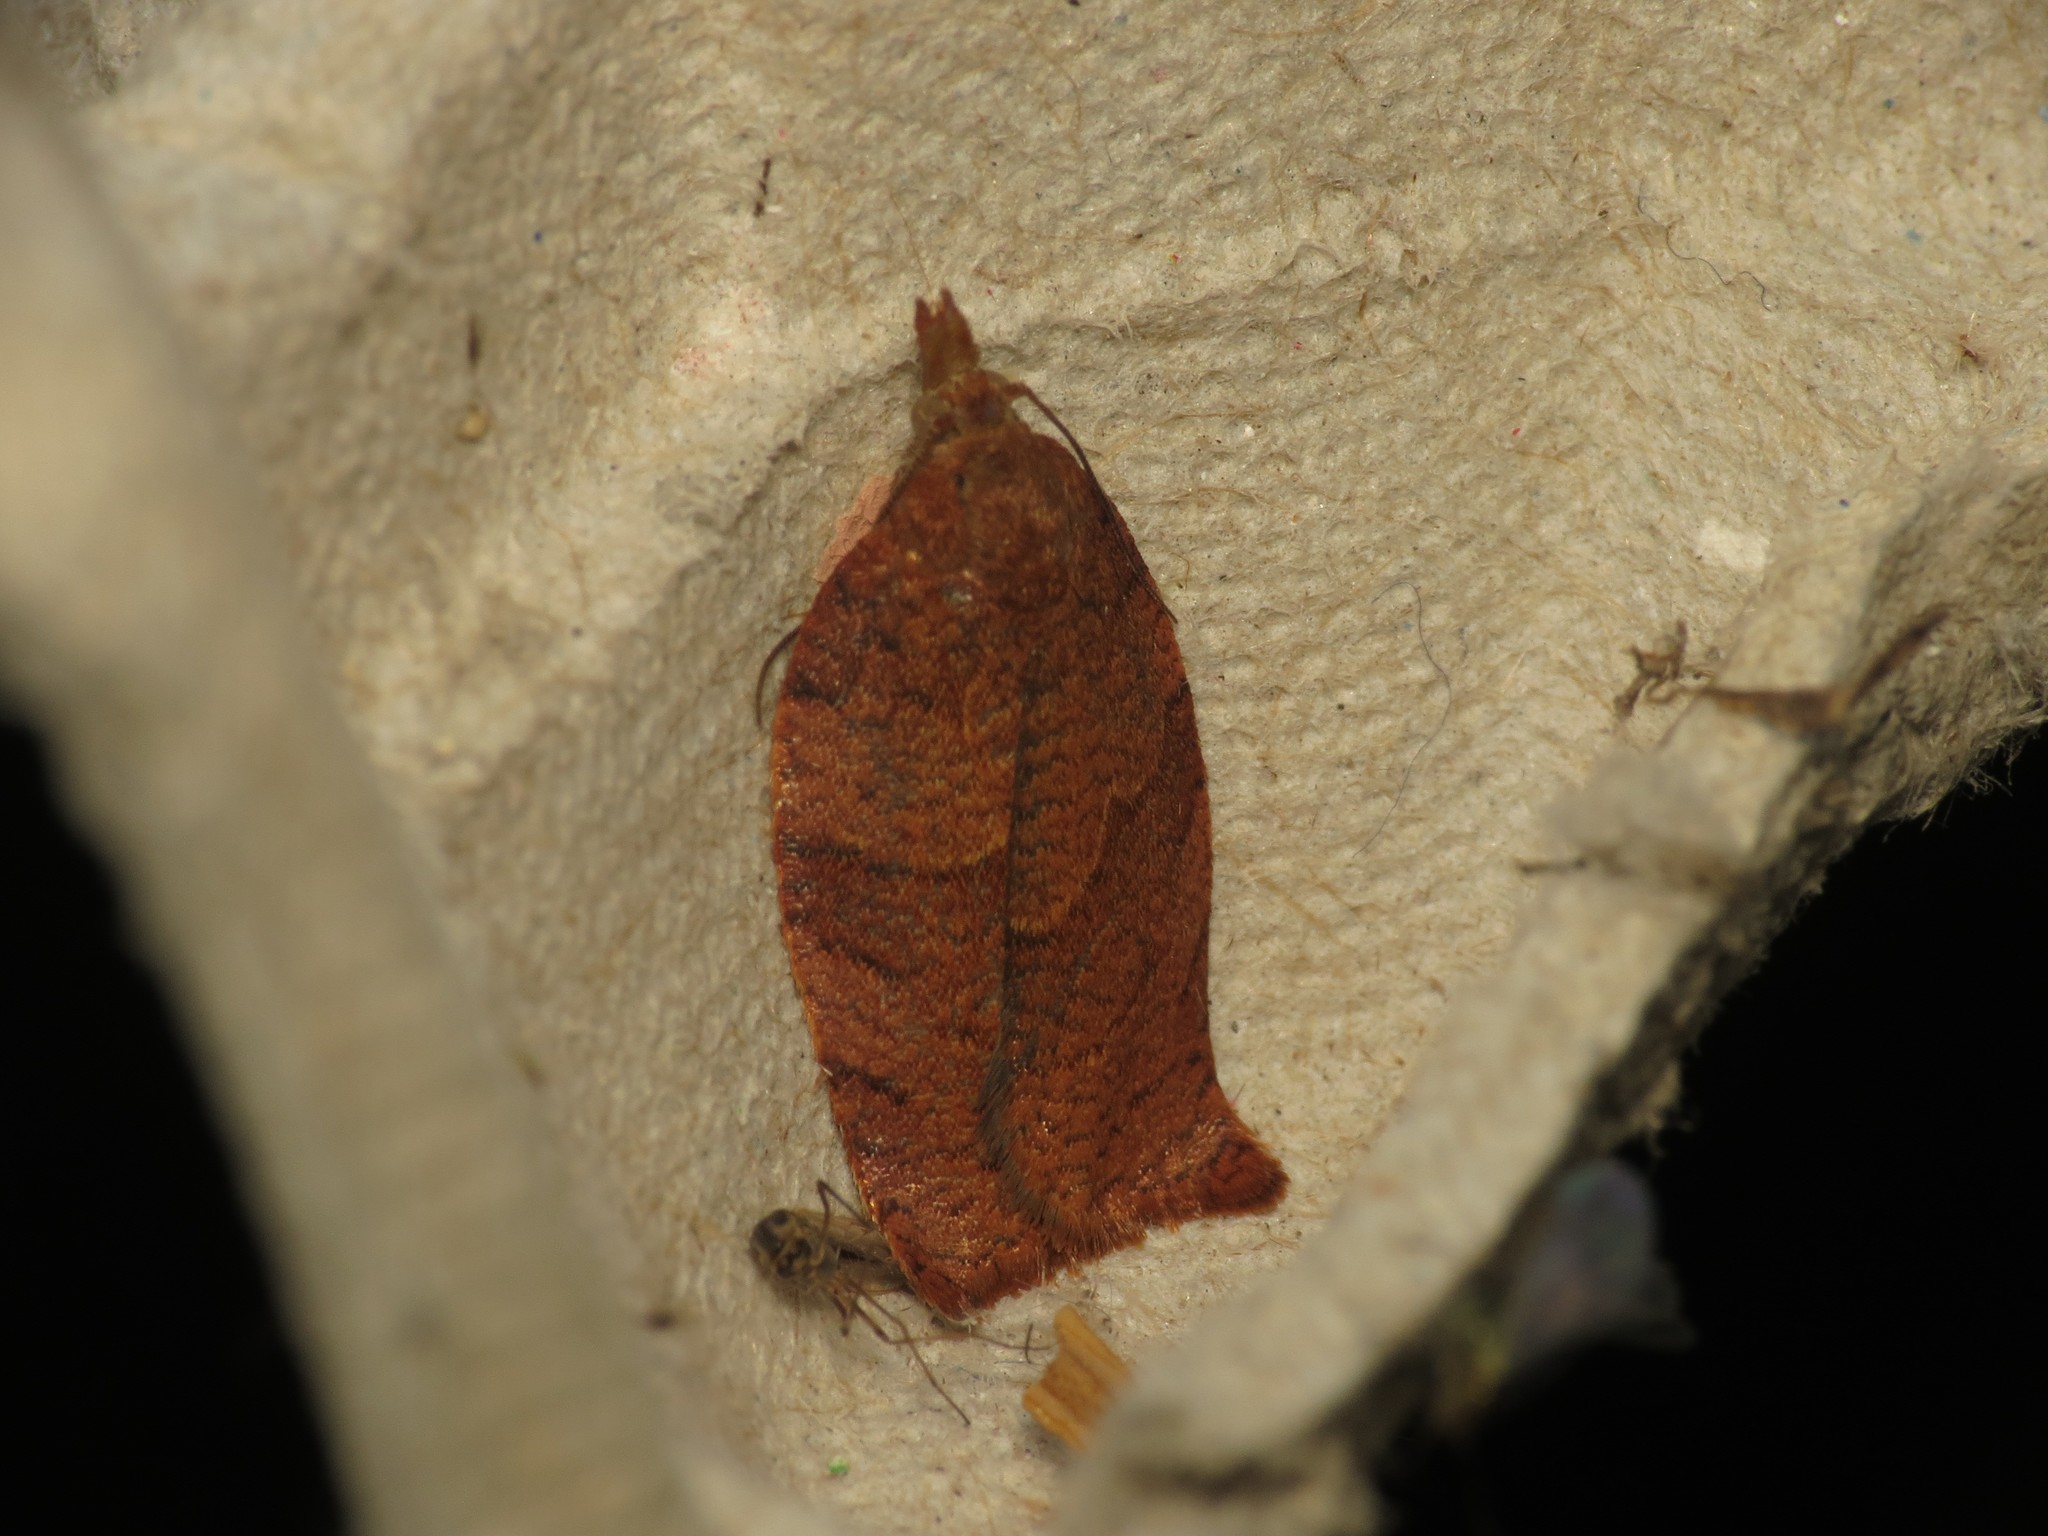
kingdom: Animalia
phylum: Arthropoda
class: Insecta
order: Lepidoptera
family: Tortricidae
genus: Pandemis
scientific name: Pandemis heparana
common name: Dark fruit-tree tortrix
